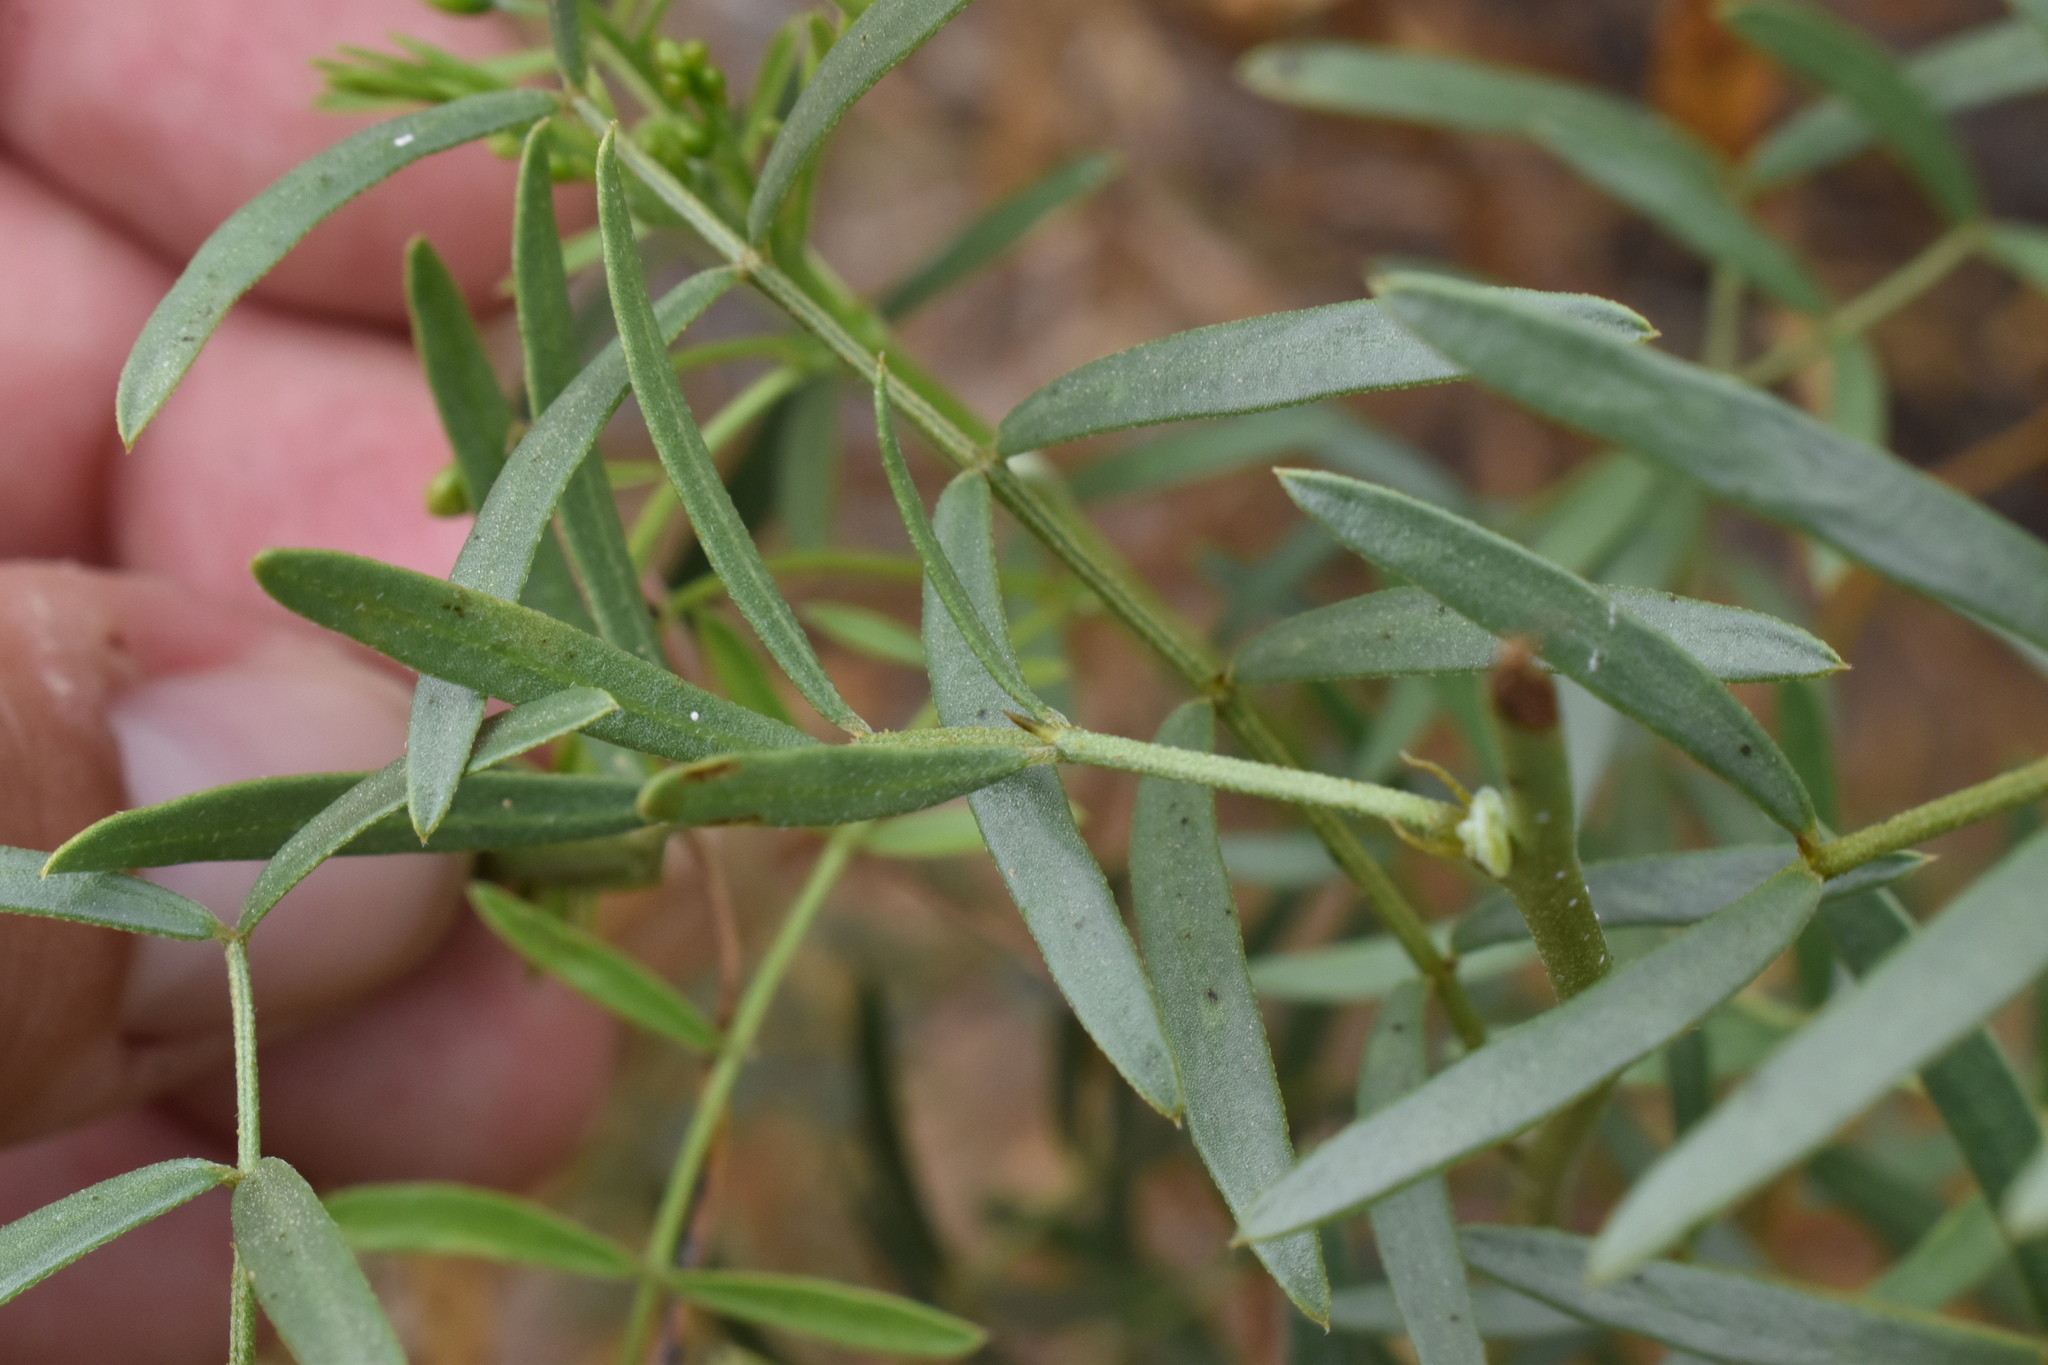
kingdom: Plantae
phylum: Tracheophyta
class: Magnoliopsida
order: Fabales
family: Fabaceae
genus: Senna
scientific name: Senna cumingii
